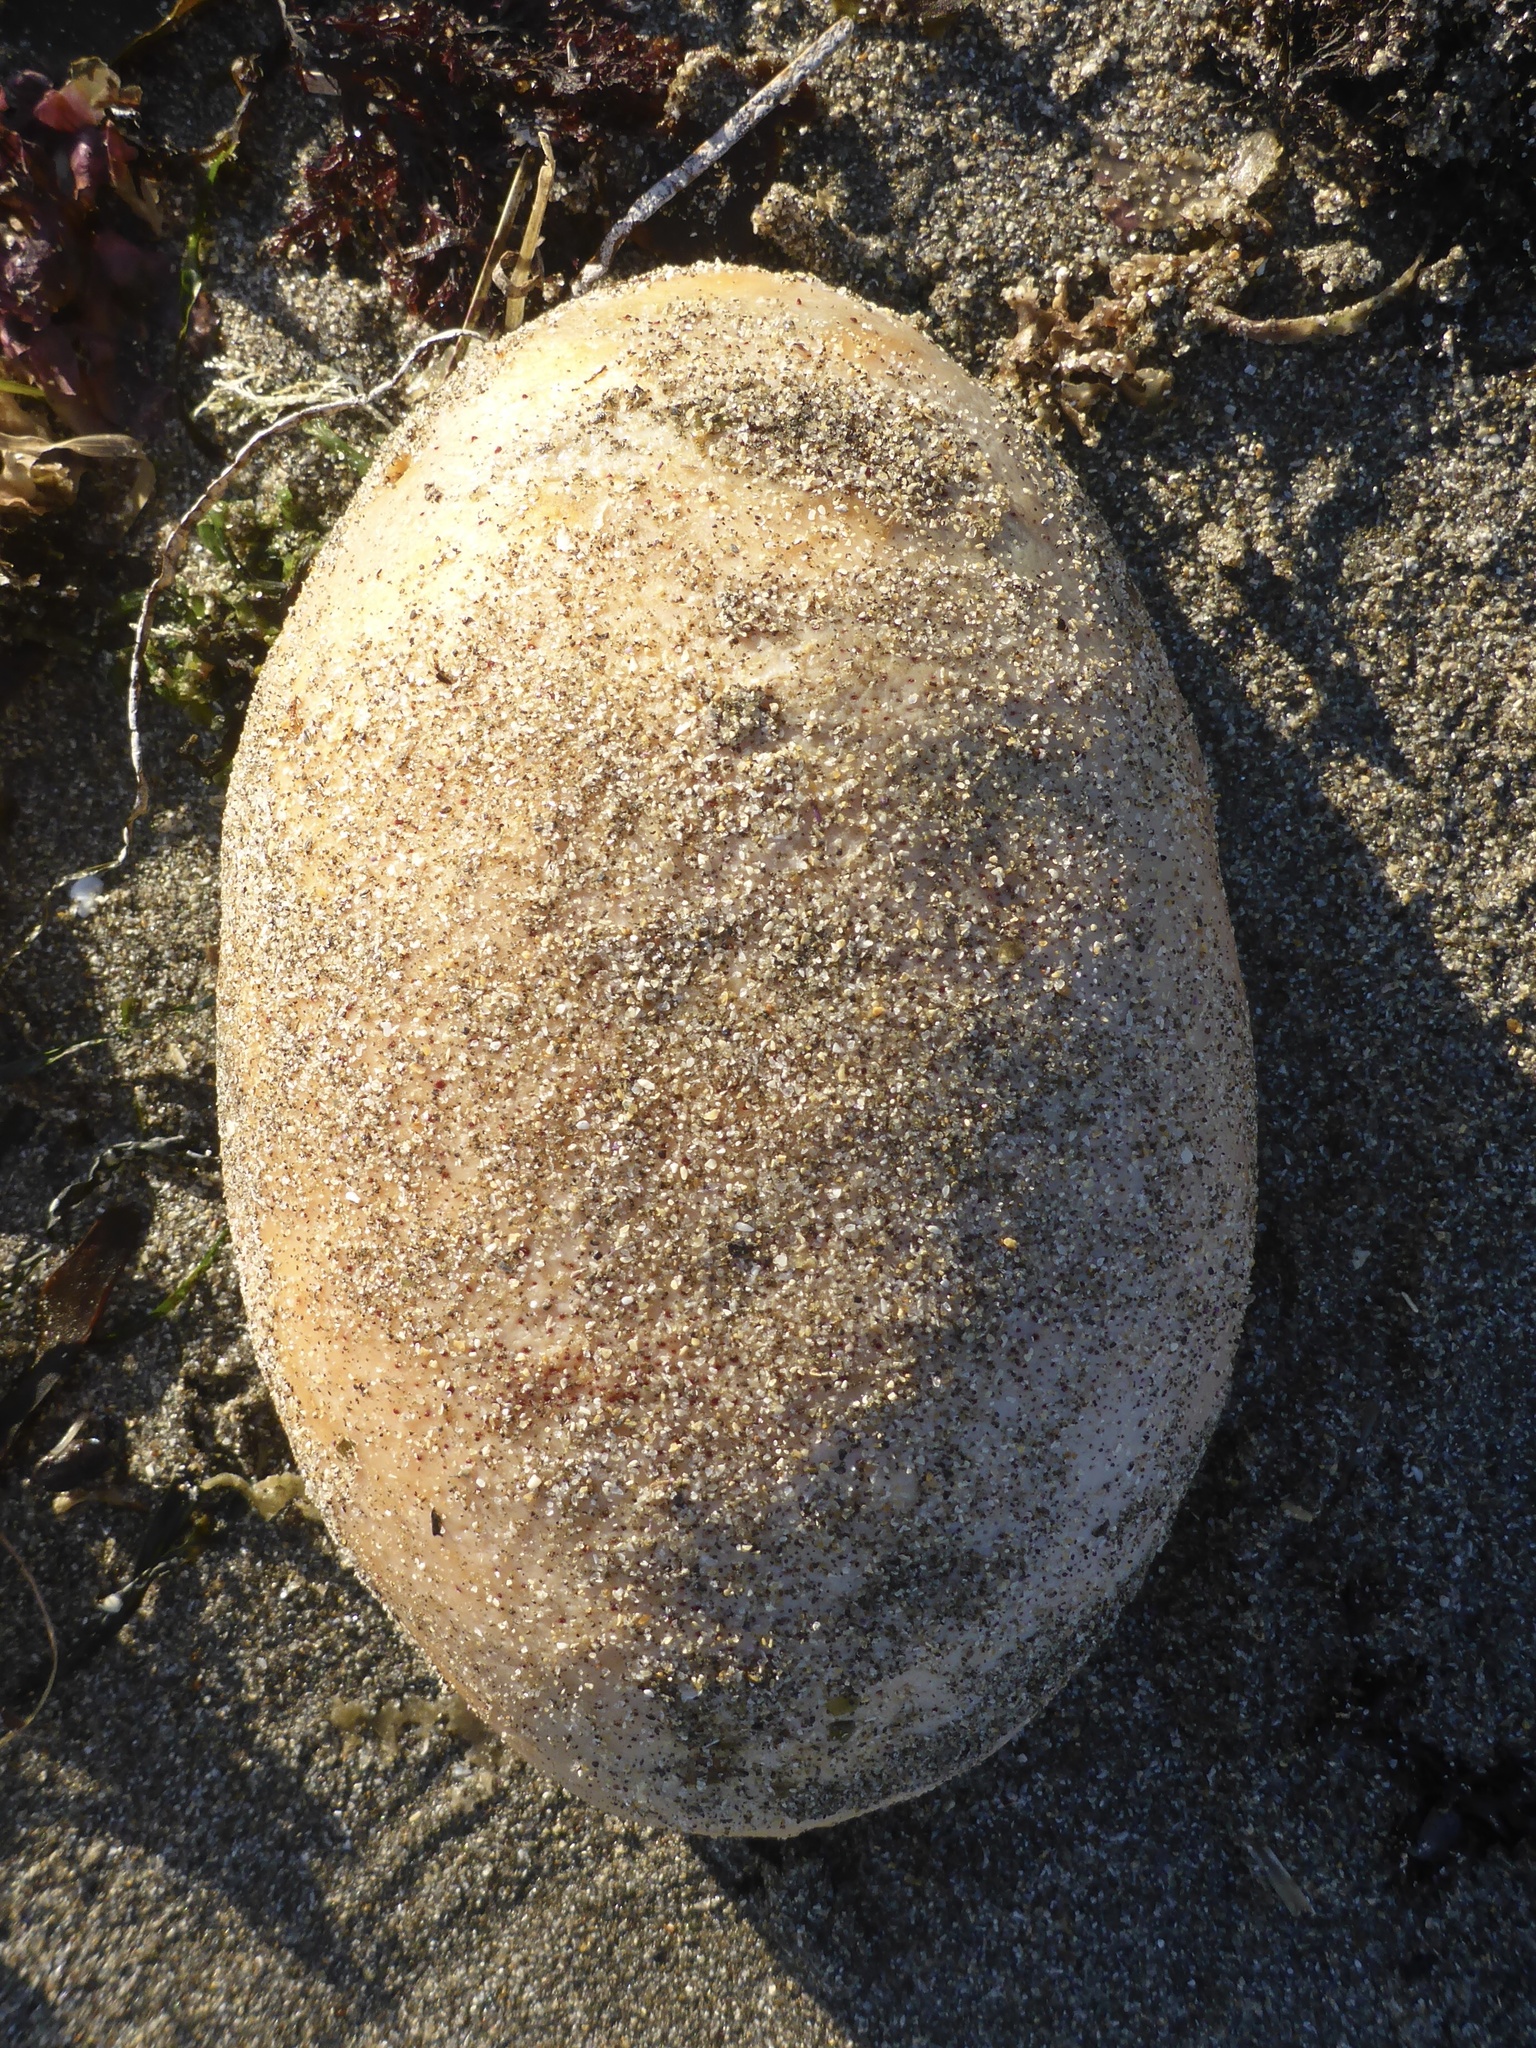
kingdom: Animalia
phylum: Mollusca
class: Polyplacophora
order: Chitonida
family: Acanthochitonidae
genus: Cryptochiton
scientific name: Cryptochiton stelleri
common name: Giant pacific chiton
